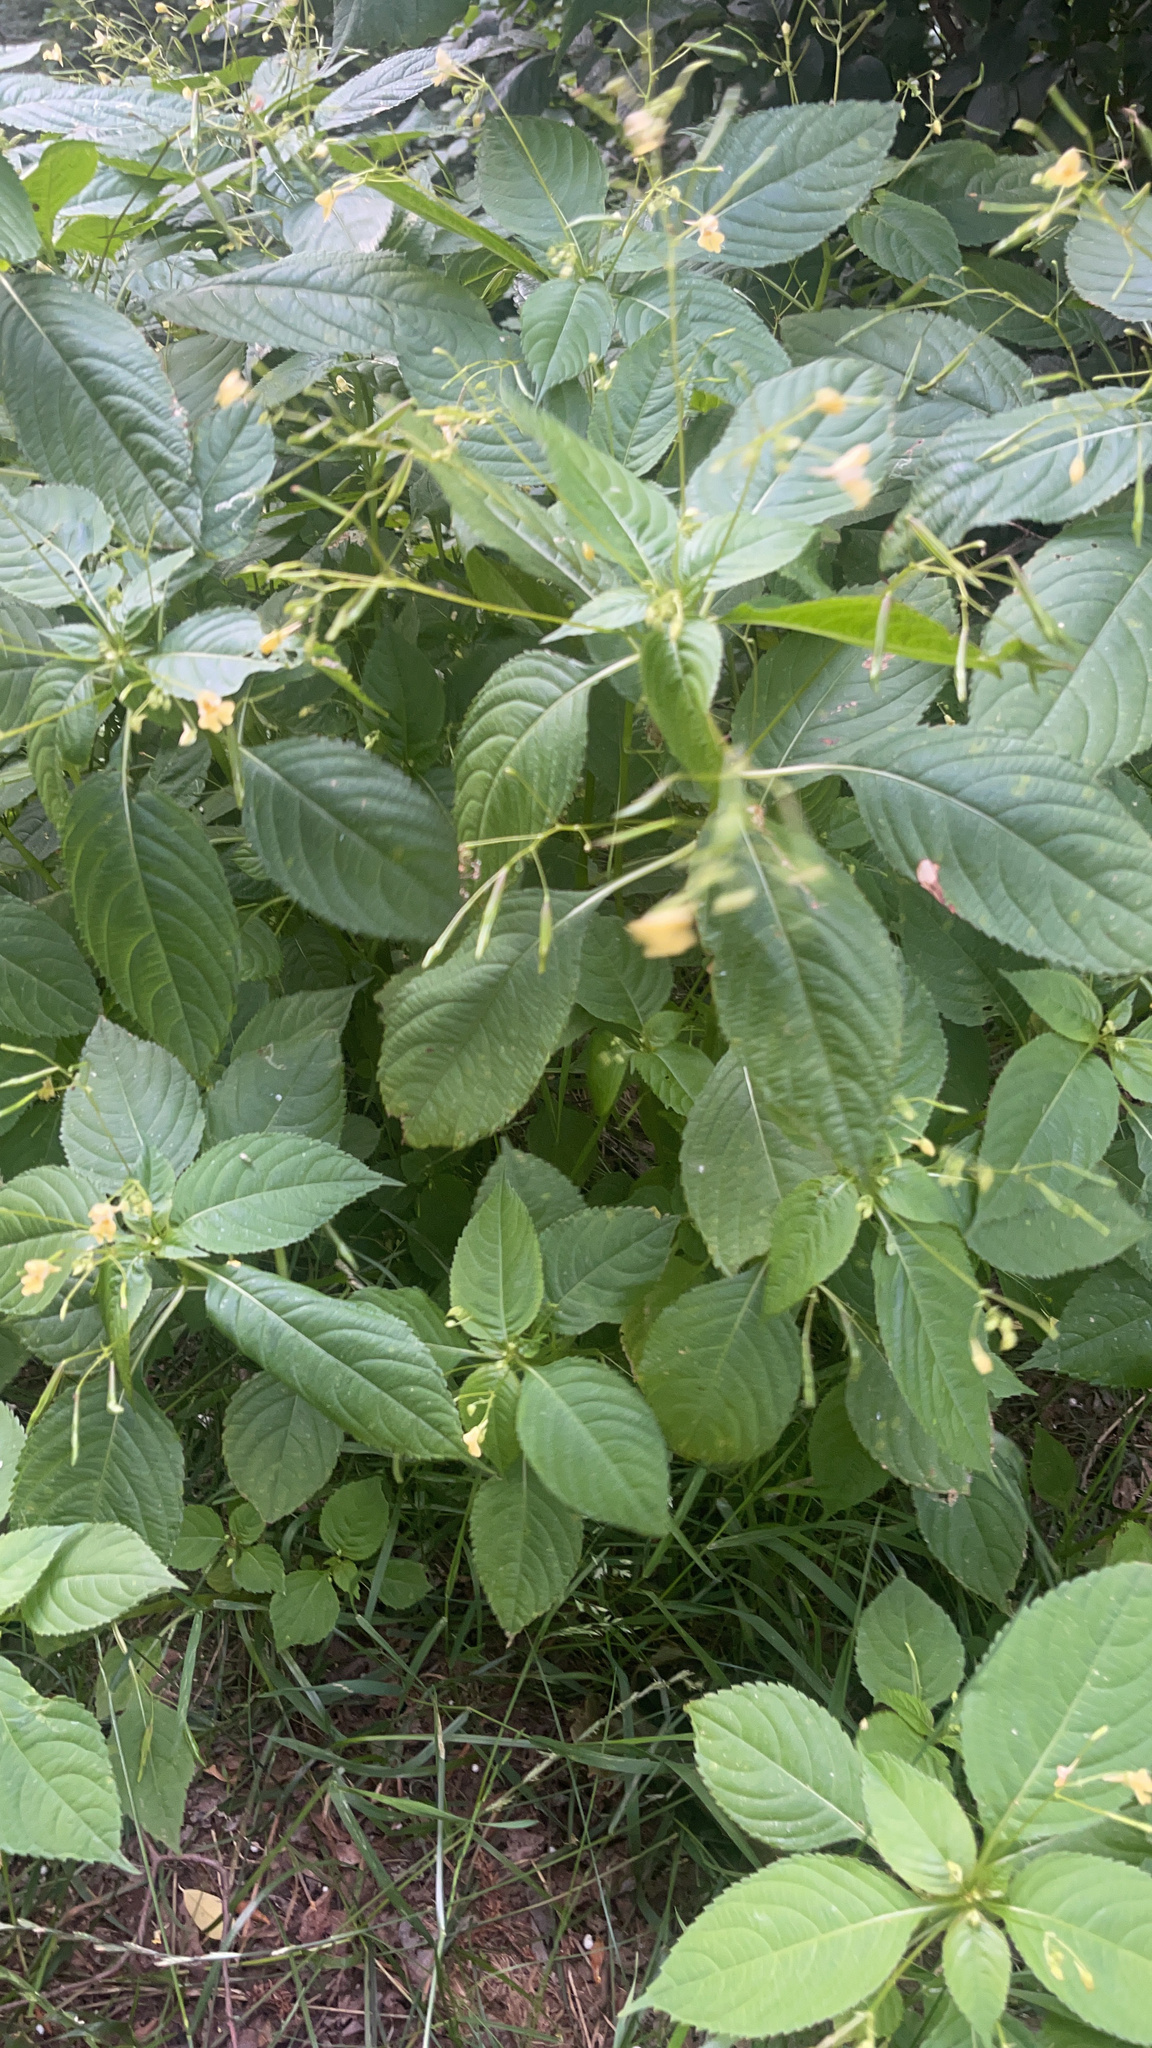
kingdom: Plantae
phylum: Tracheophyta
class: Magnoliopsida
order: Ericales
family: Balsaminaceae
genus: Impatiens
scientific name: Impatiens parviflora
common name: Small balsam
